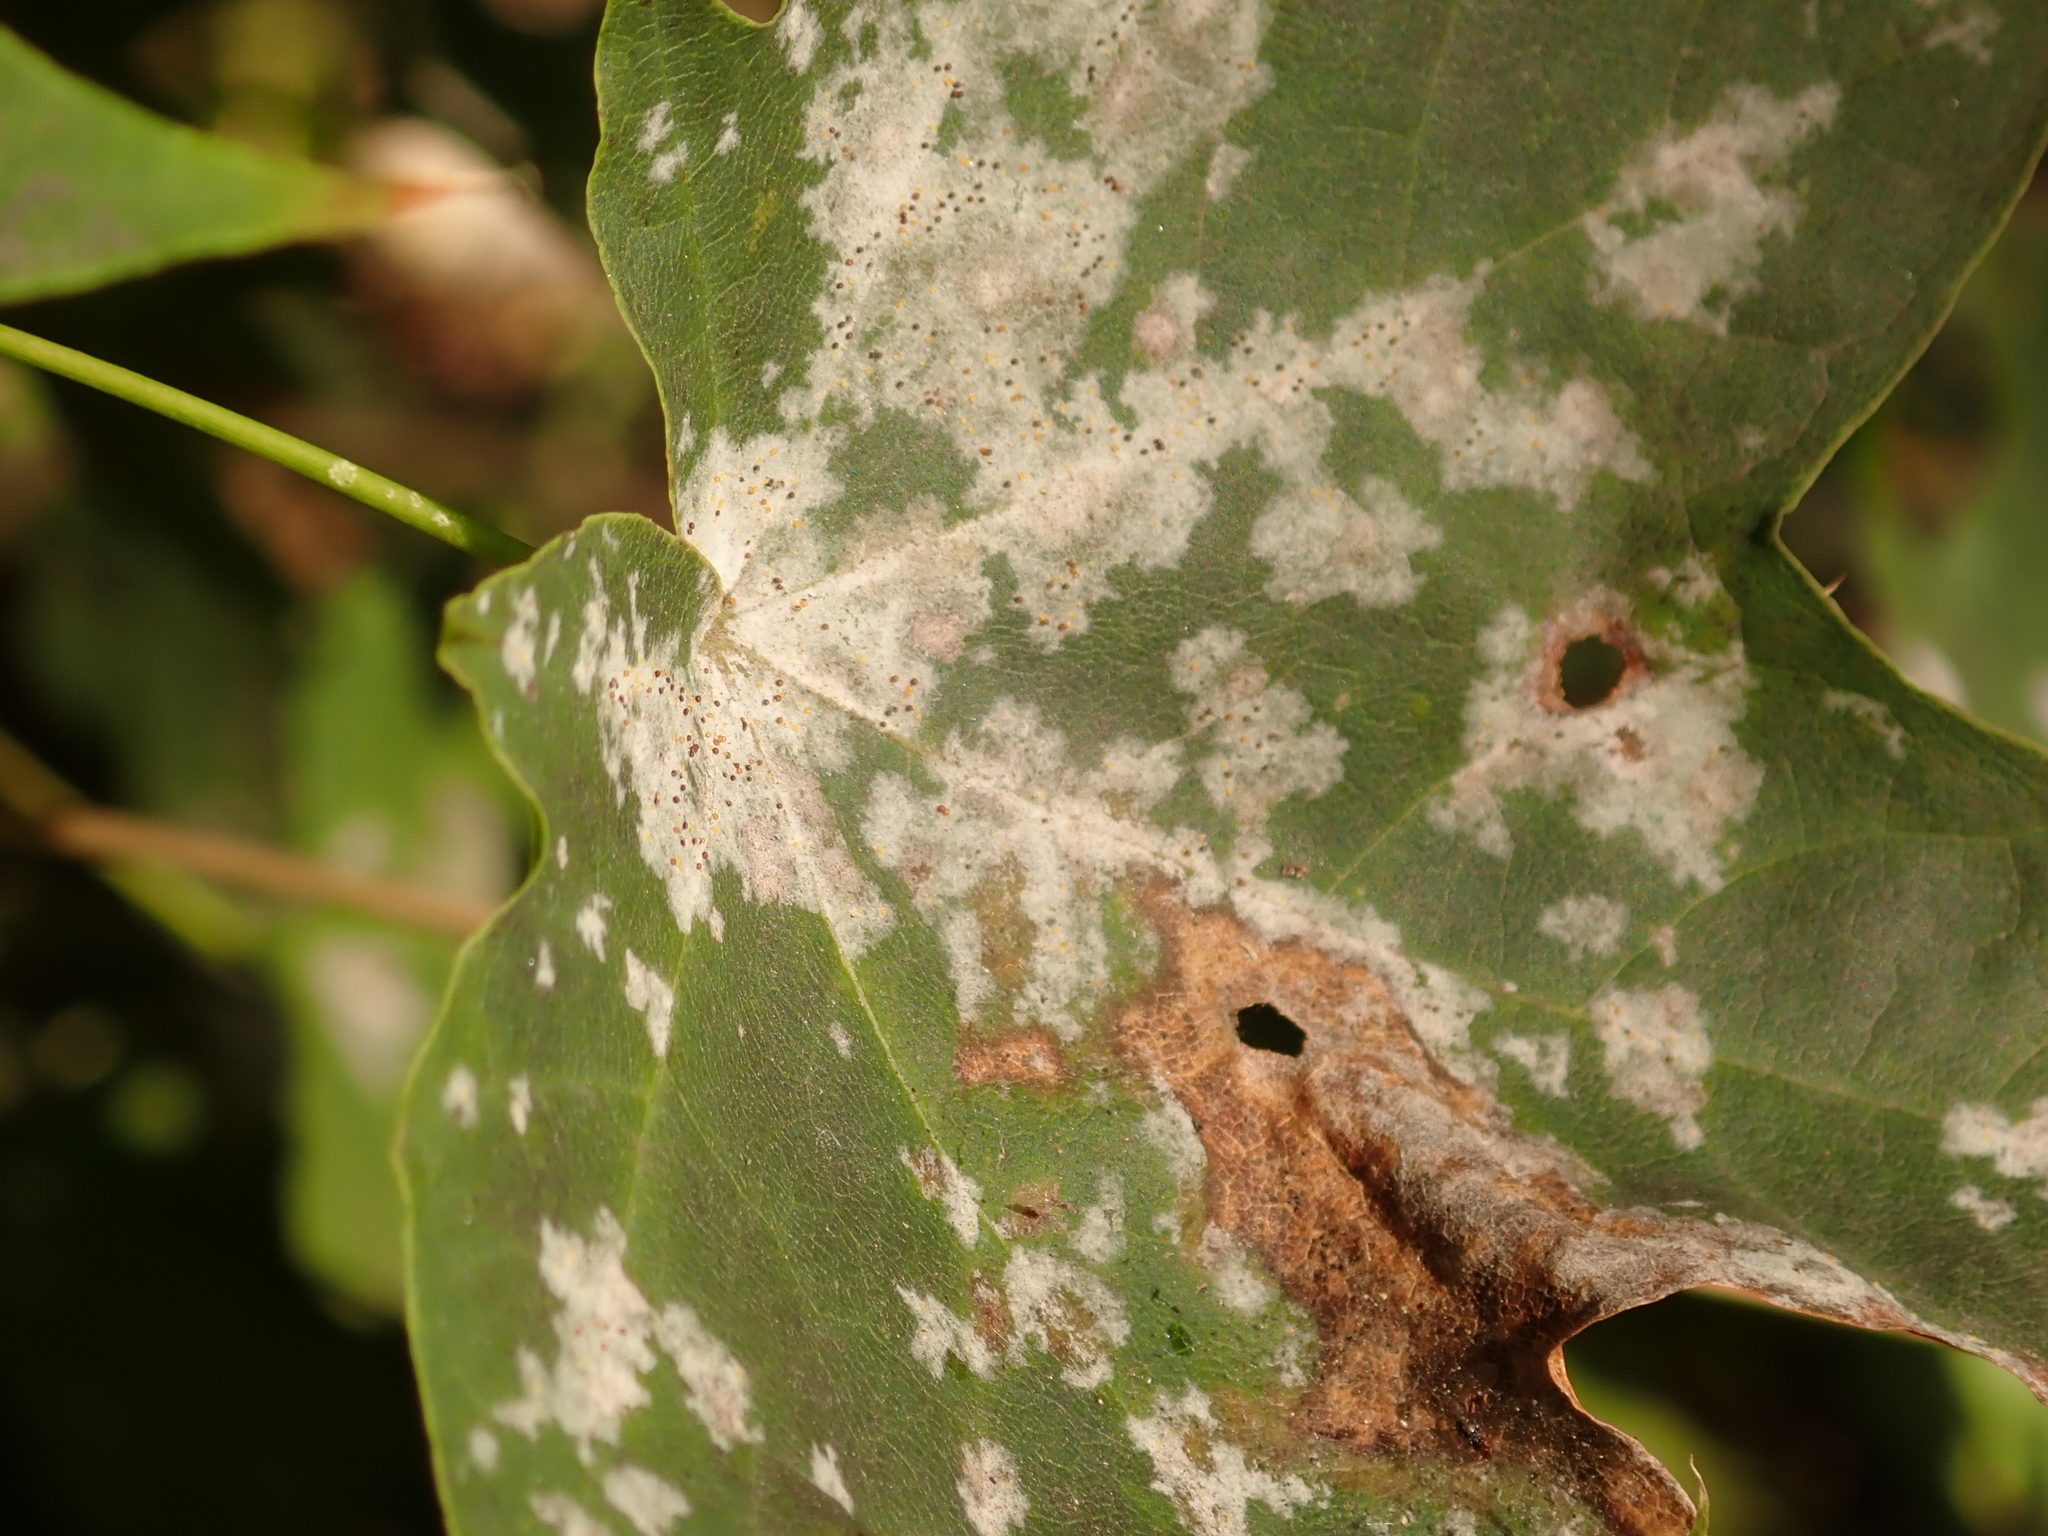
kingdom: Fungi
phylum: Ascomycota
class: Leotiomycetes
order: Helotiales
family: Erysiphaceae
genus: Sawadaea
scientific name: Sawadaea tulasnei
